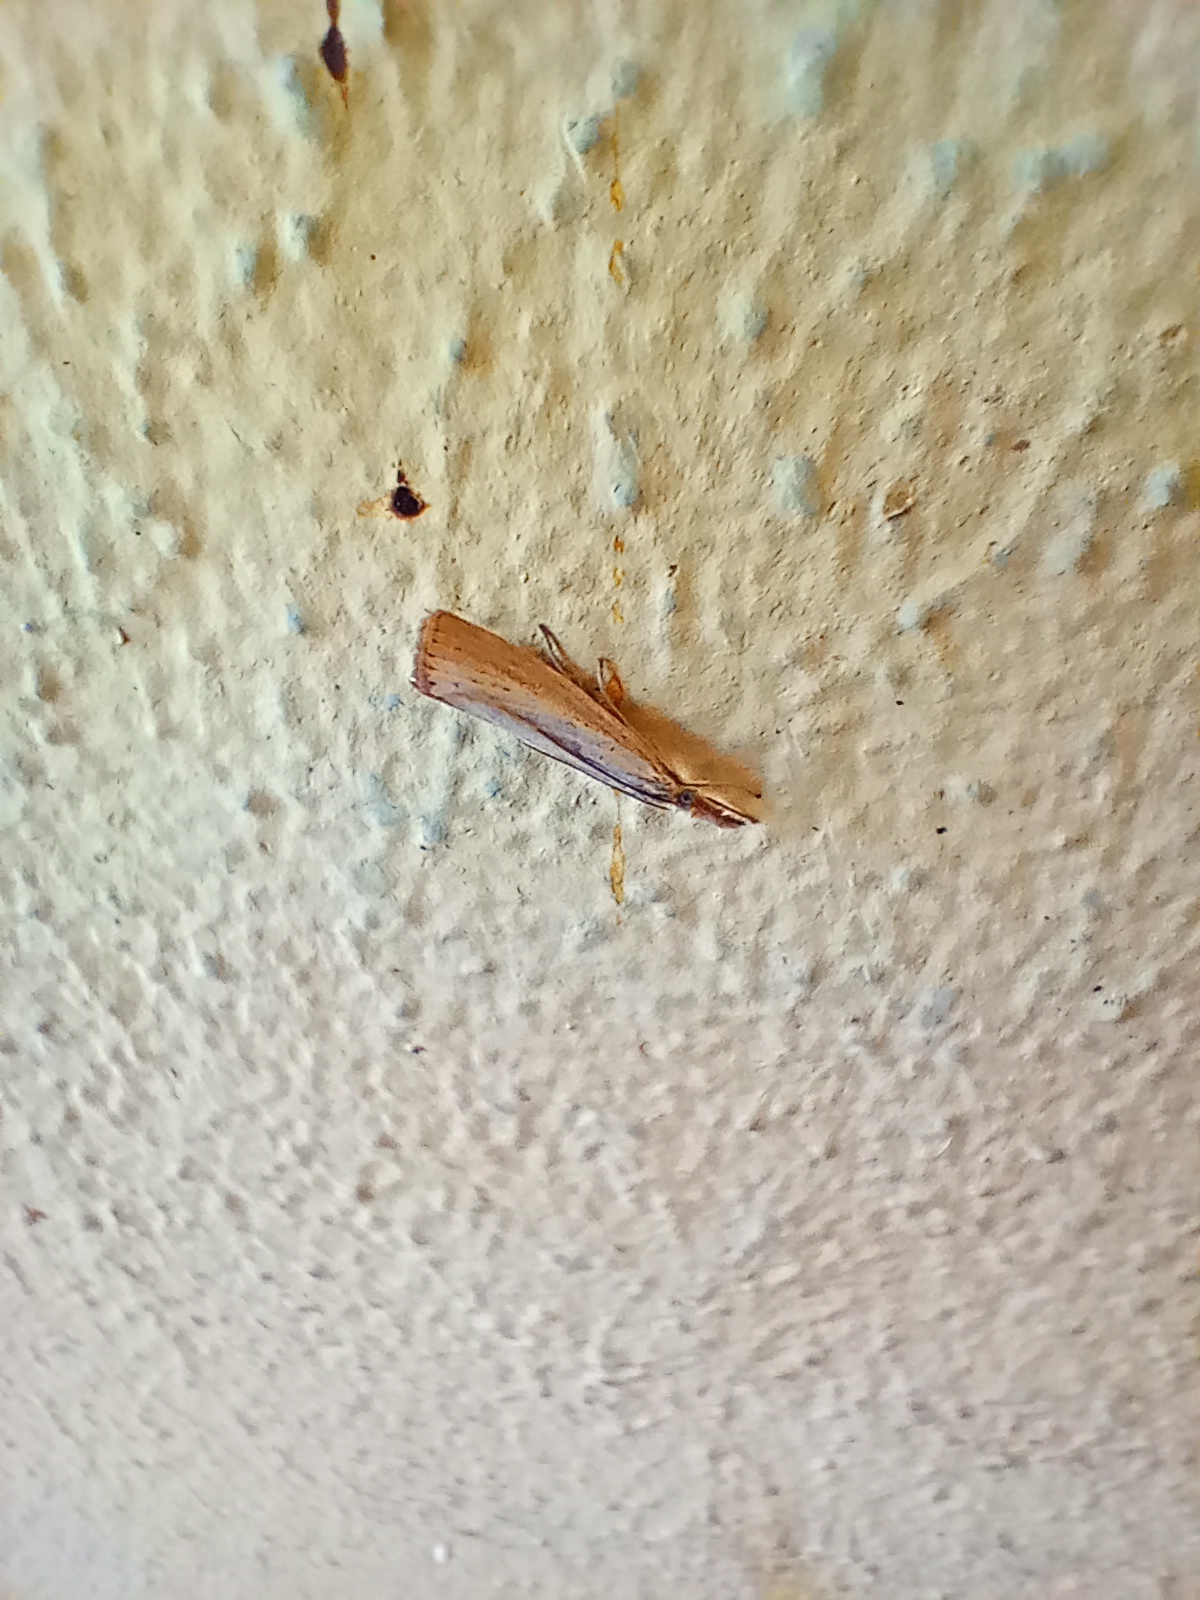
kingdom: Animalia
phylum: Arthropoda
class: Insecta
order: Lepidoptera
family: Crambidae
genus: Agriphila
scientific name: Agriphila straminella
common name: Straw grass-veneer
